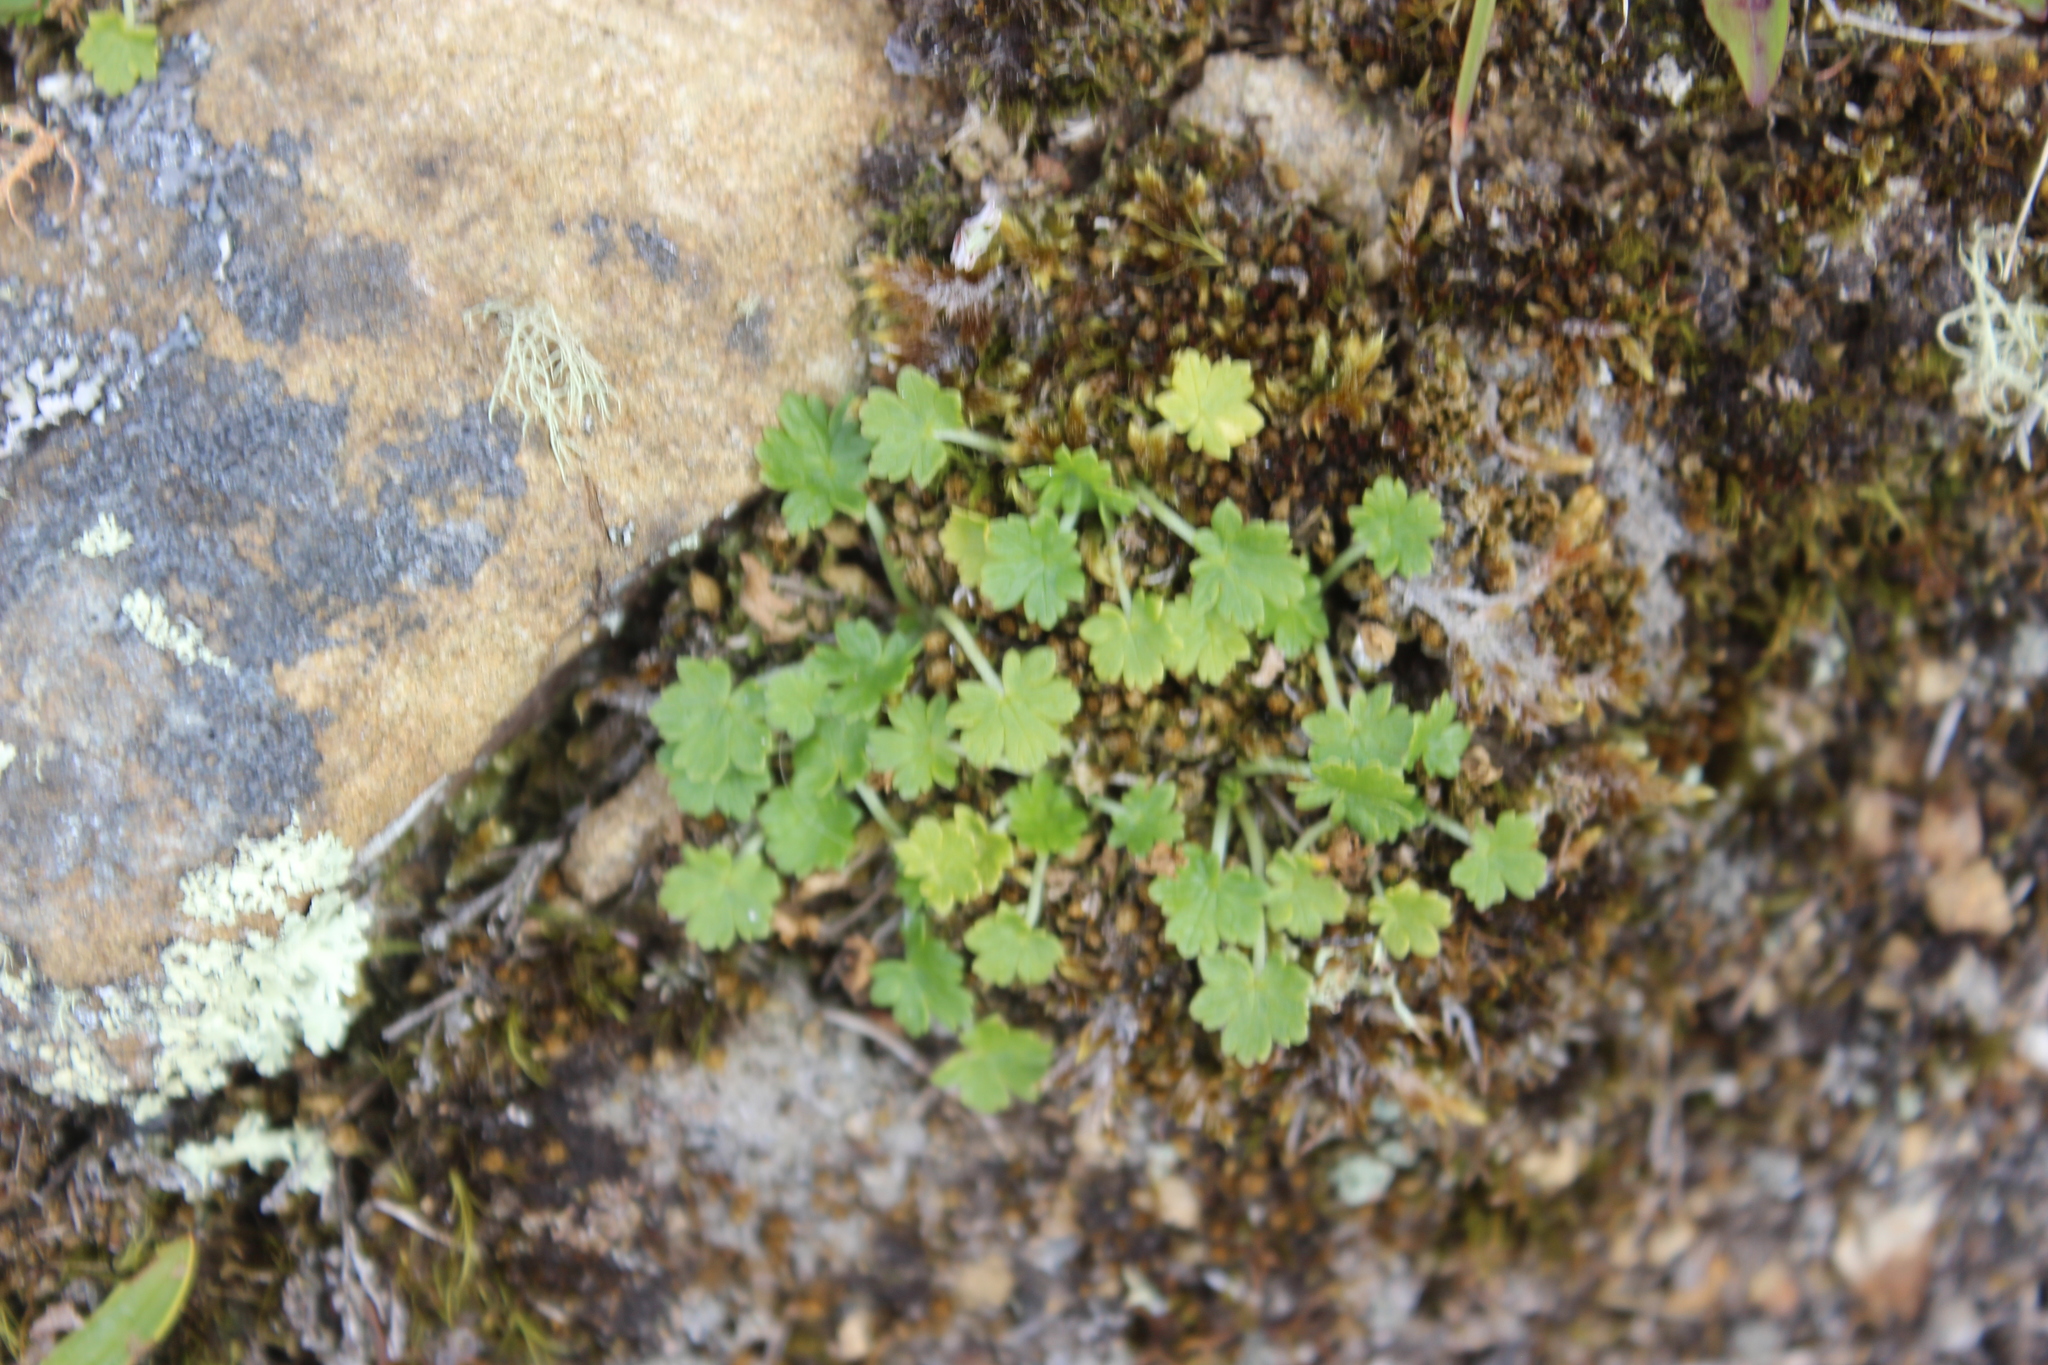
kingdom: Plantae
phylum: Tracheophyta
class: Magnoliopsida
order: Geraniales
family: Geraniaceae
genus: Geranium
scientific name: Geranium brevicaule
